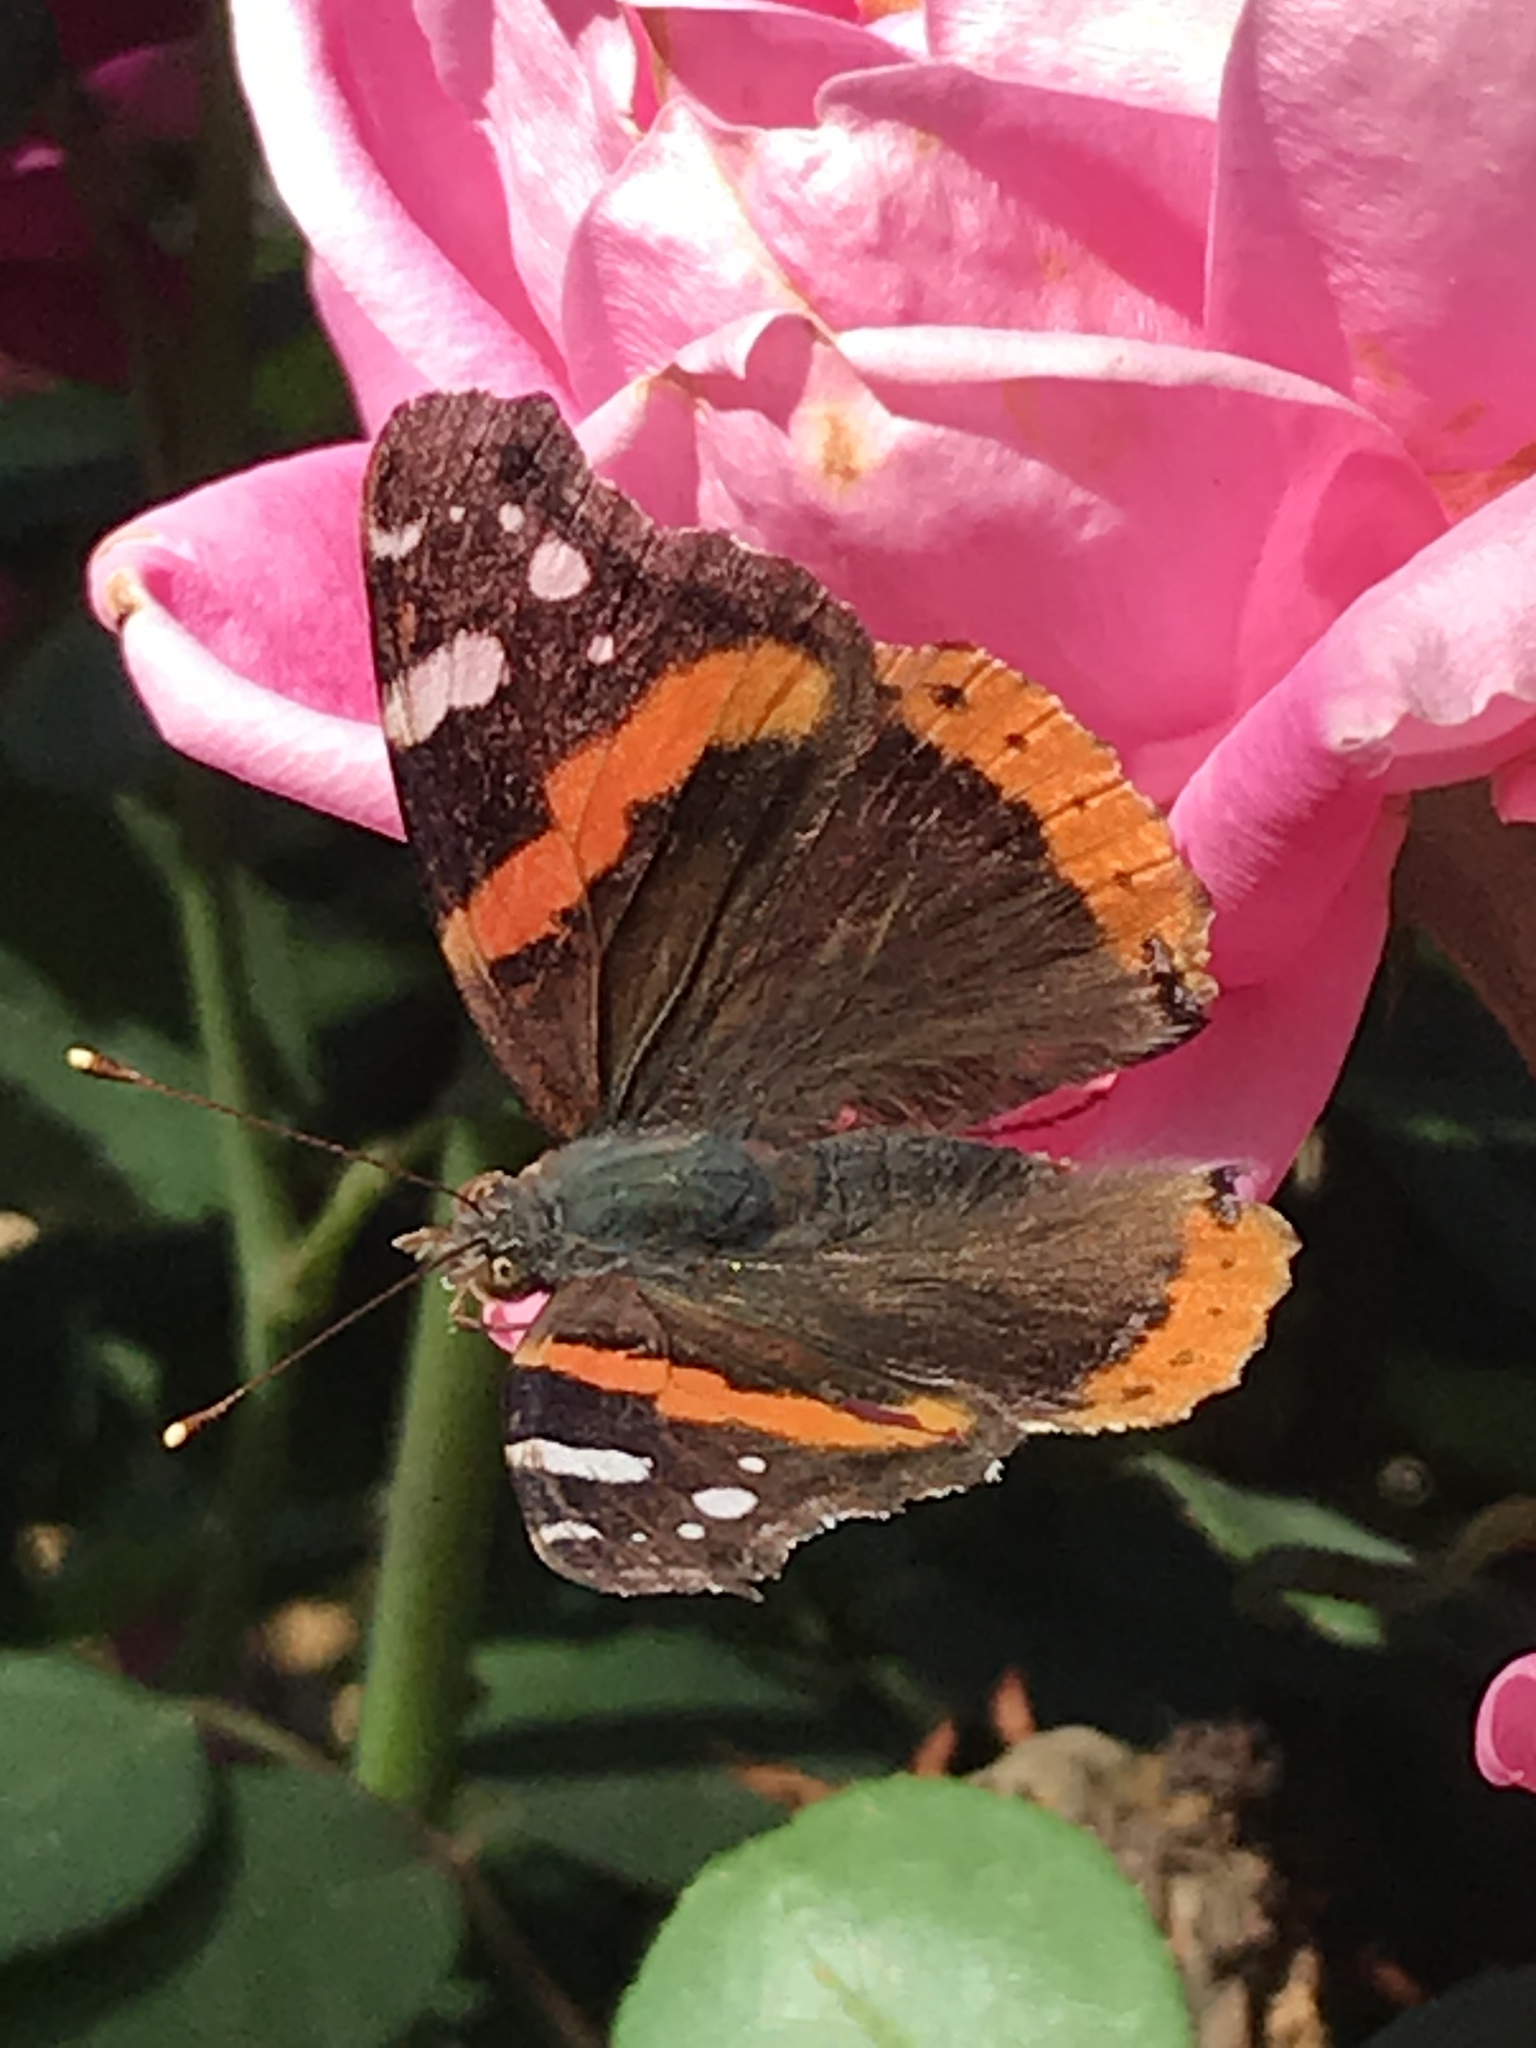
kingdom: Animalia
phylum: Arthropoda
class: Insecta
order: Lepidoptera
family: Nymphalidae
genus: Vanessa
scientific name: Vanessa atalanta
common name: Red admiral
